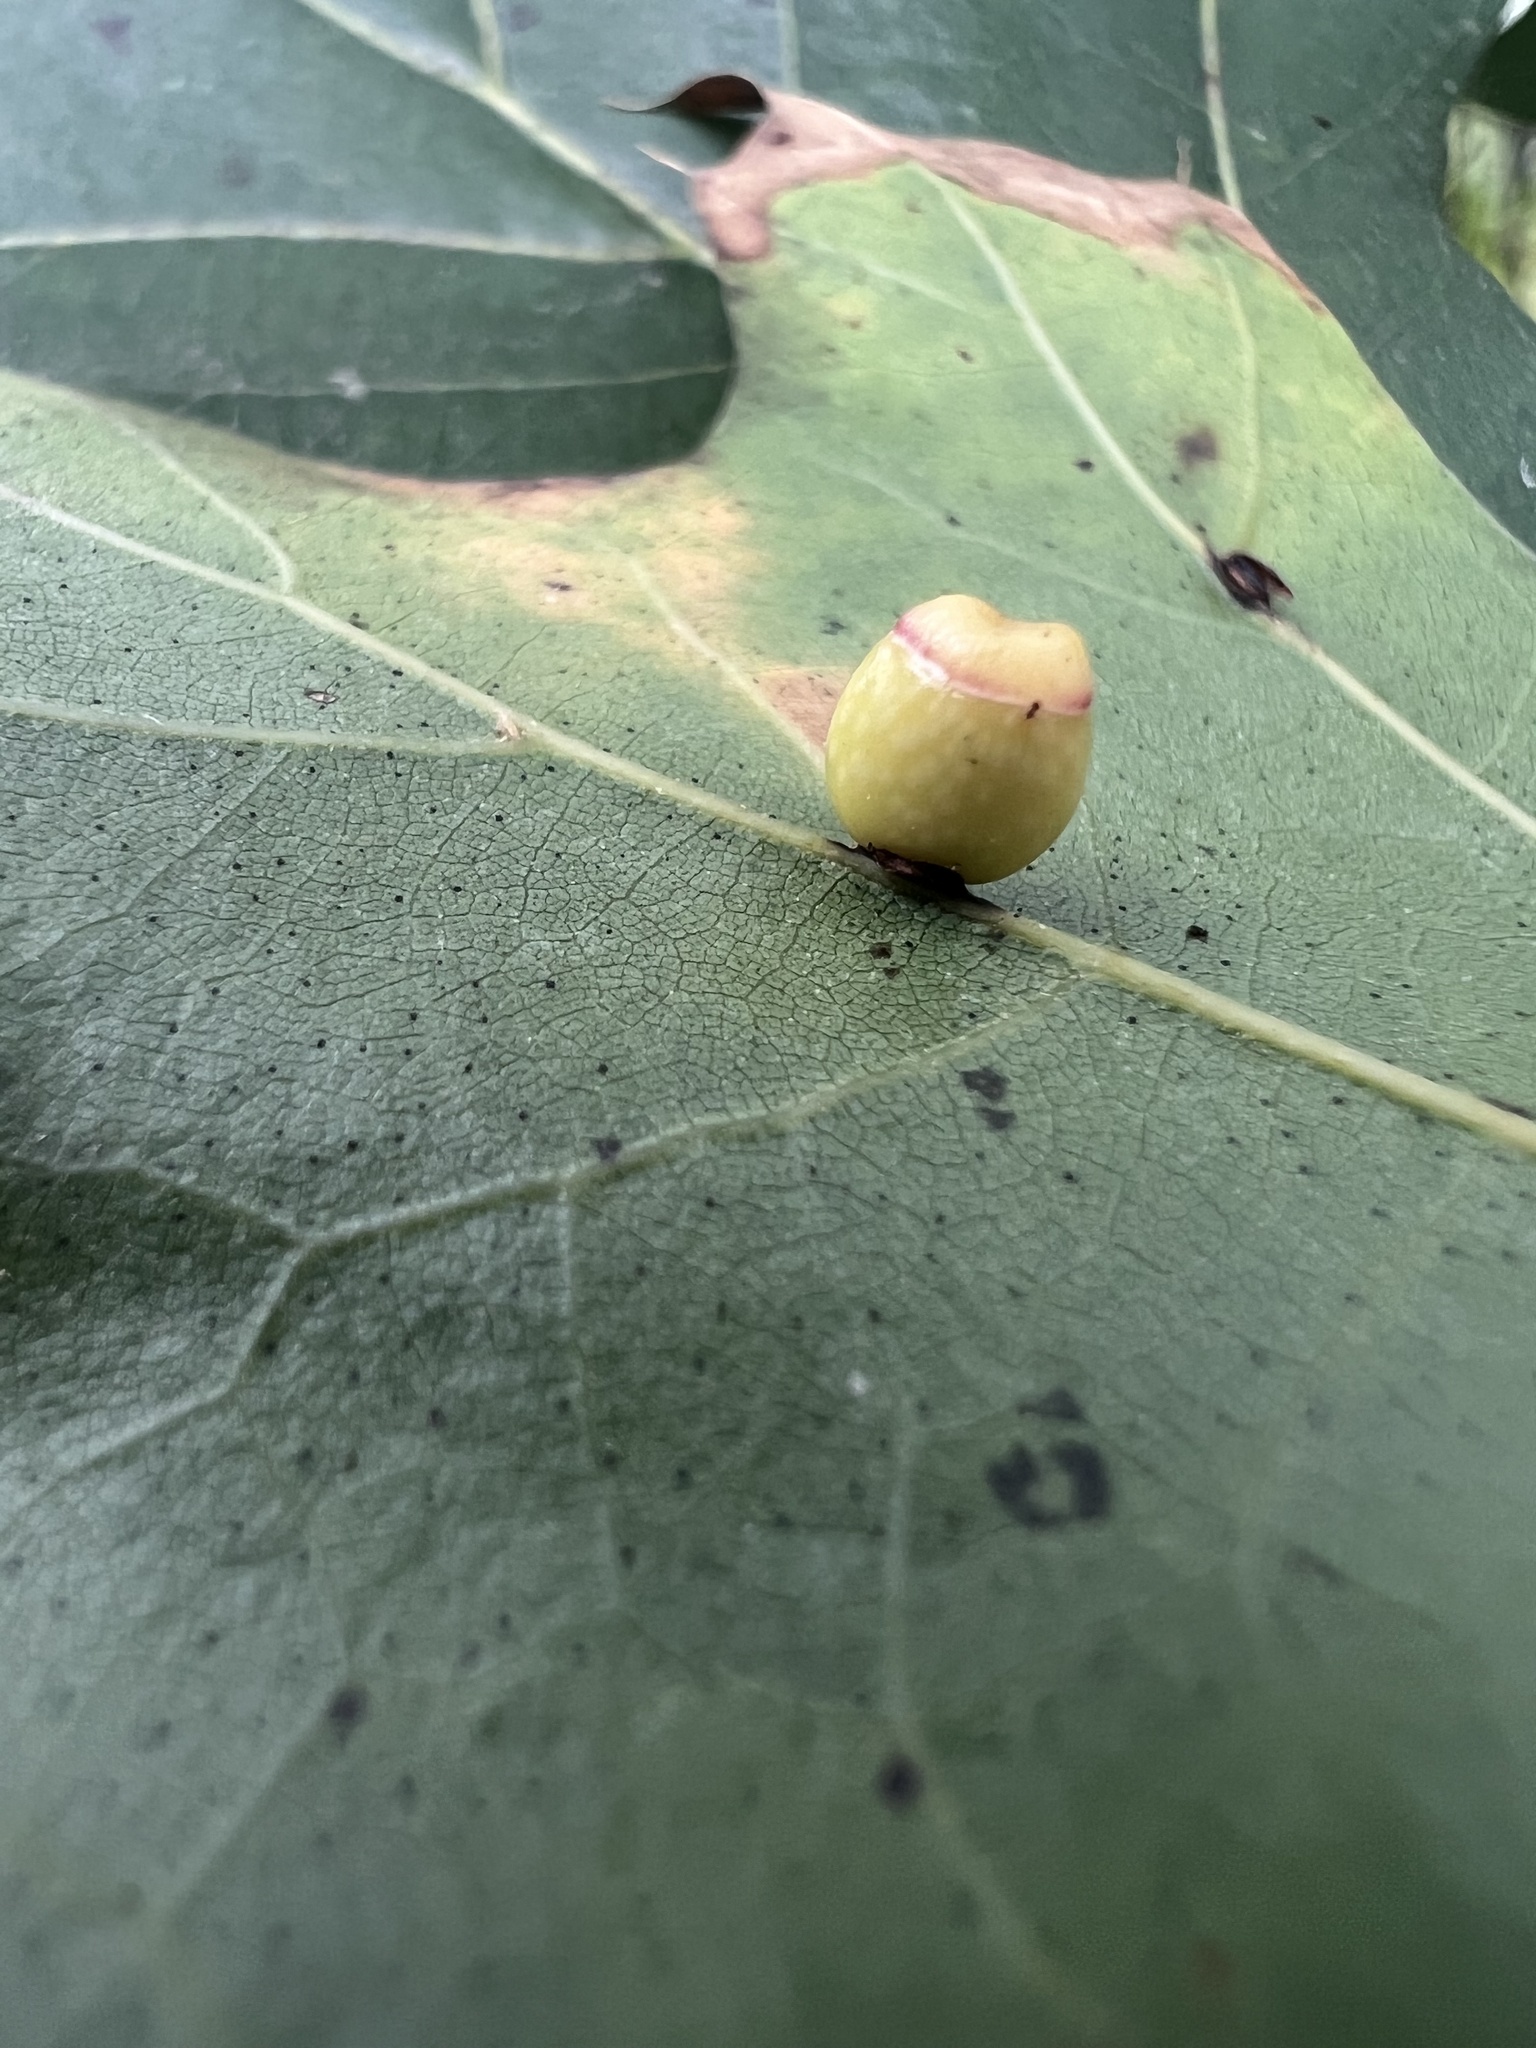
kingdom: Animalia
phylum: Arthropoda
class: Insecta
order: Hymenoptera
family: Cynipidae
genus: Kokkocynips
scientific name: Kokkocynips rileyi
